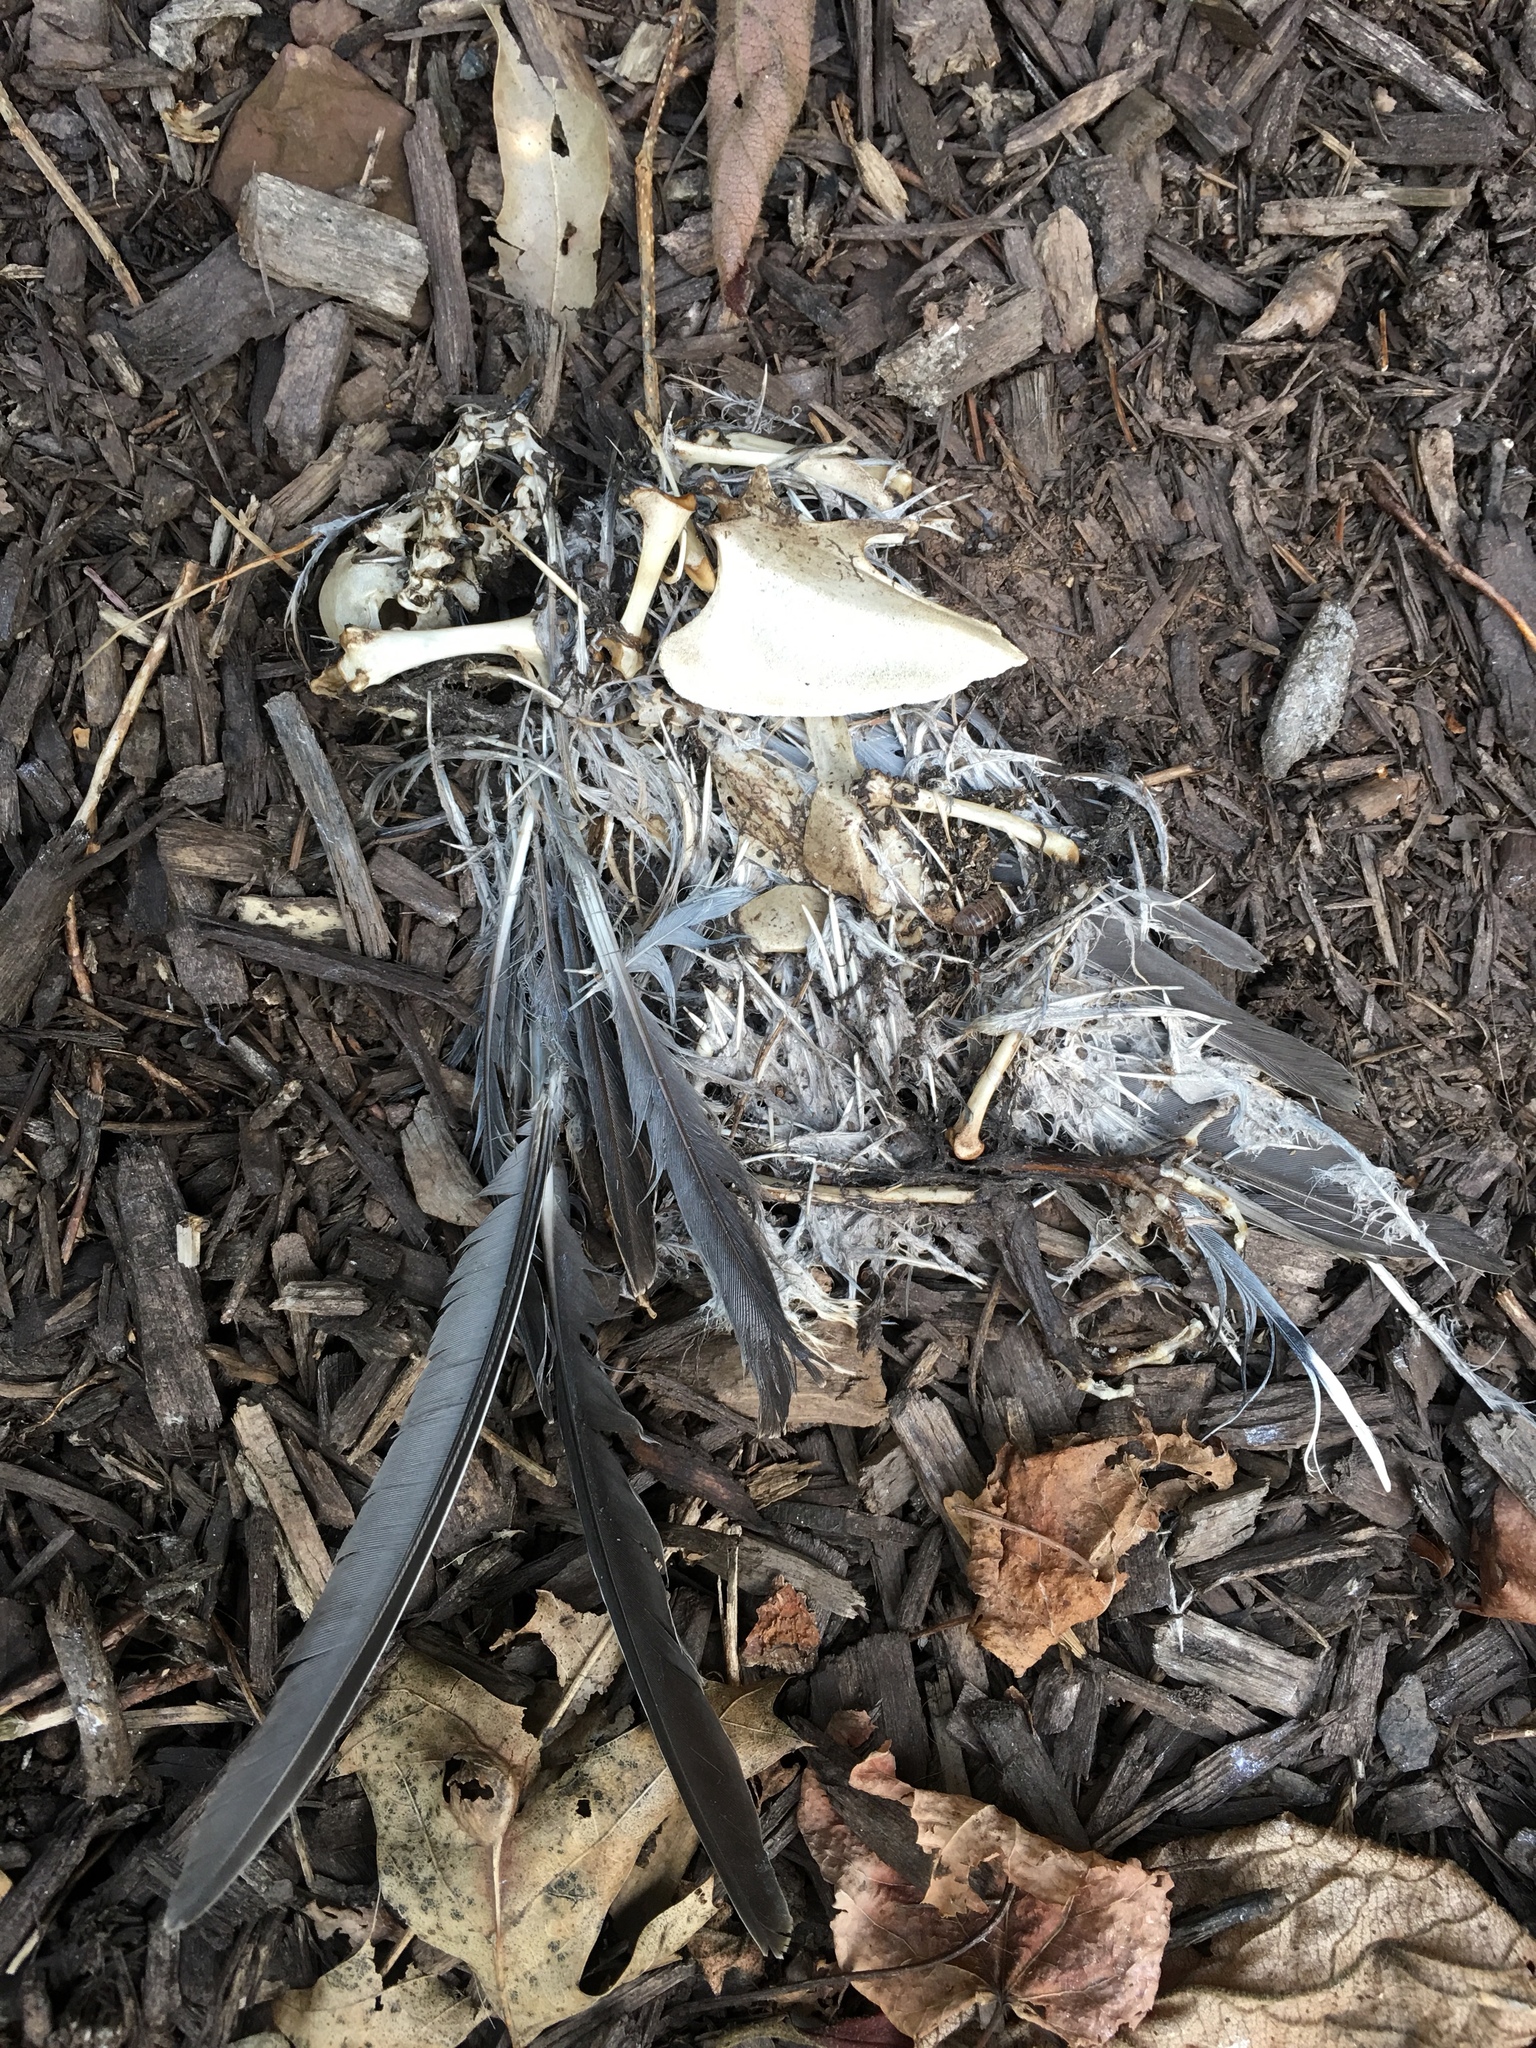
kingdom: Animalia
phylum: Chordata
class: Aves
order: Columbiformes
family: Columbidae
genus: Zenaida
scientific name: Zenaida macroura
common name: Mourning dove
